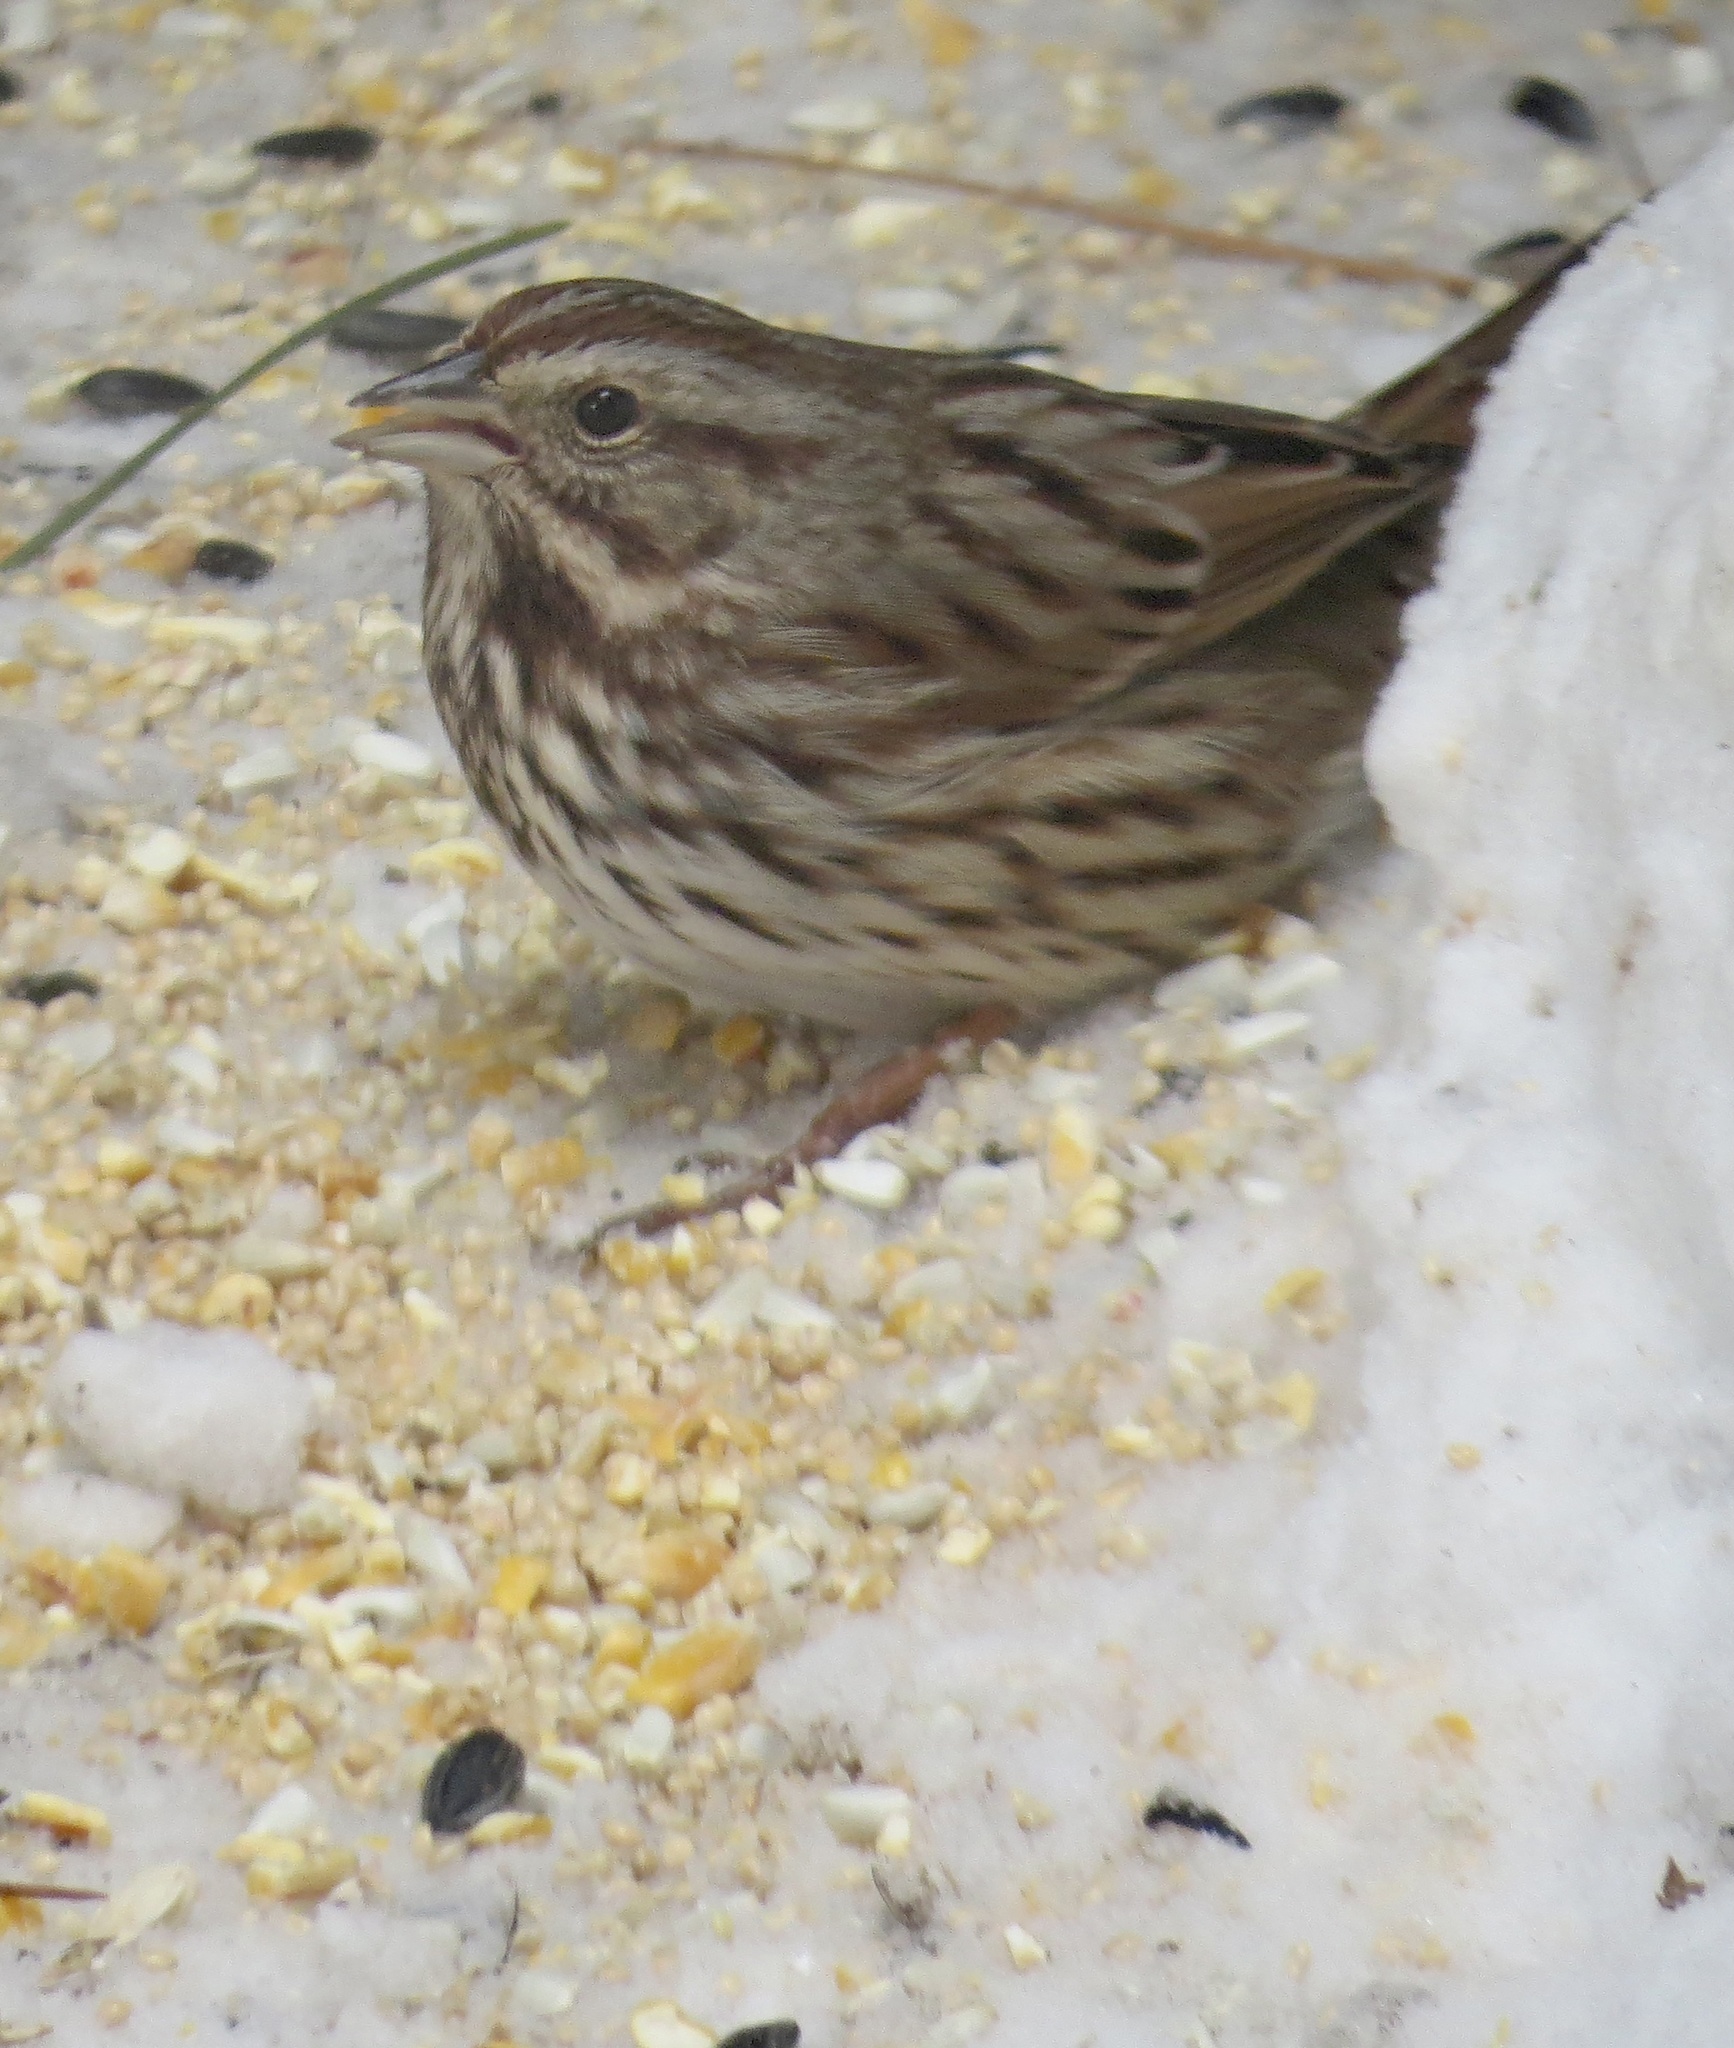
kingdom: Animalia
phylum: Chordata
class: Aves
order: Passeriformes
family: Passerellidae
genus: Melospiza
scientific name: Melospiza melodia
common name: Song sparrow
